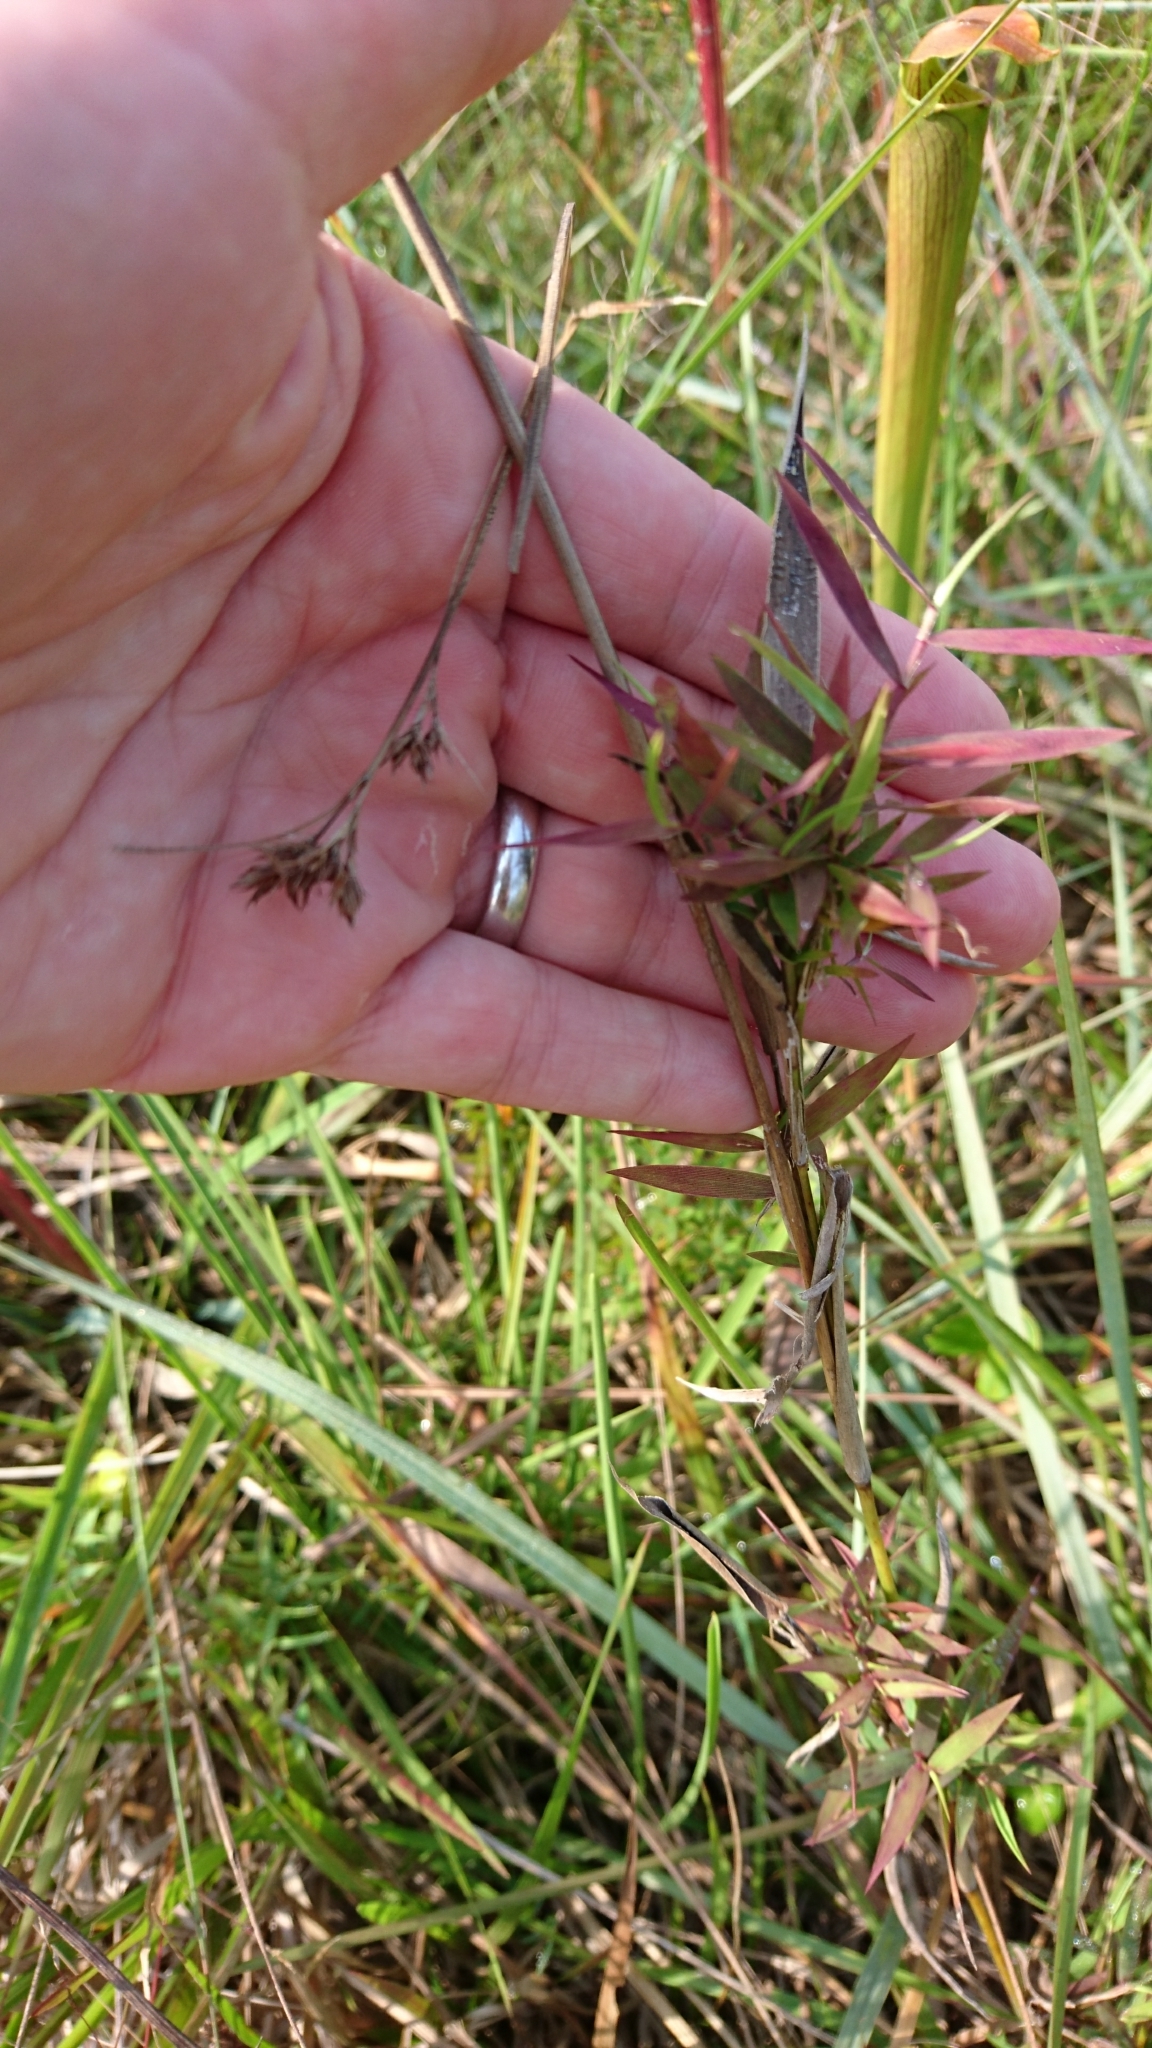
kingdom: Plantae
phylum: Tracheophyta
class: Liliopsida
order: Poales
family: Poaceae
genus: Dichanthelium
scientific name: Dichanthelium scabriusculum
